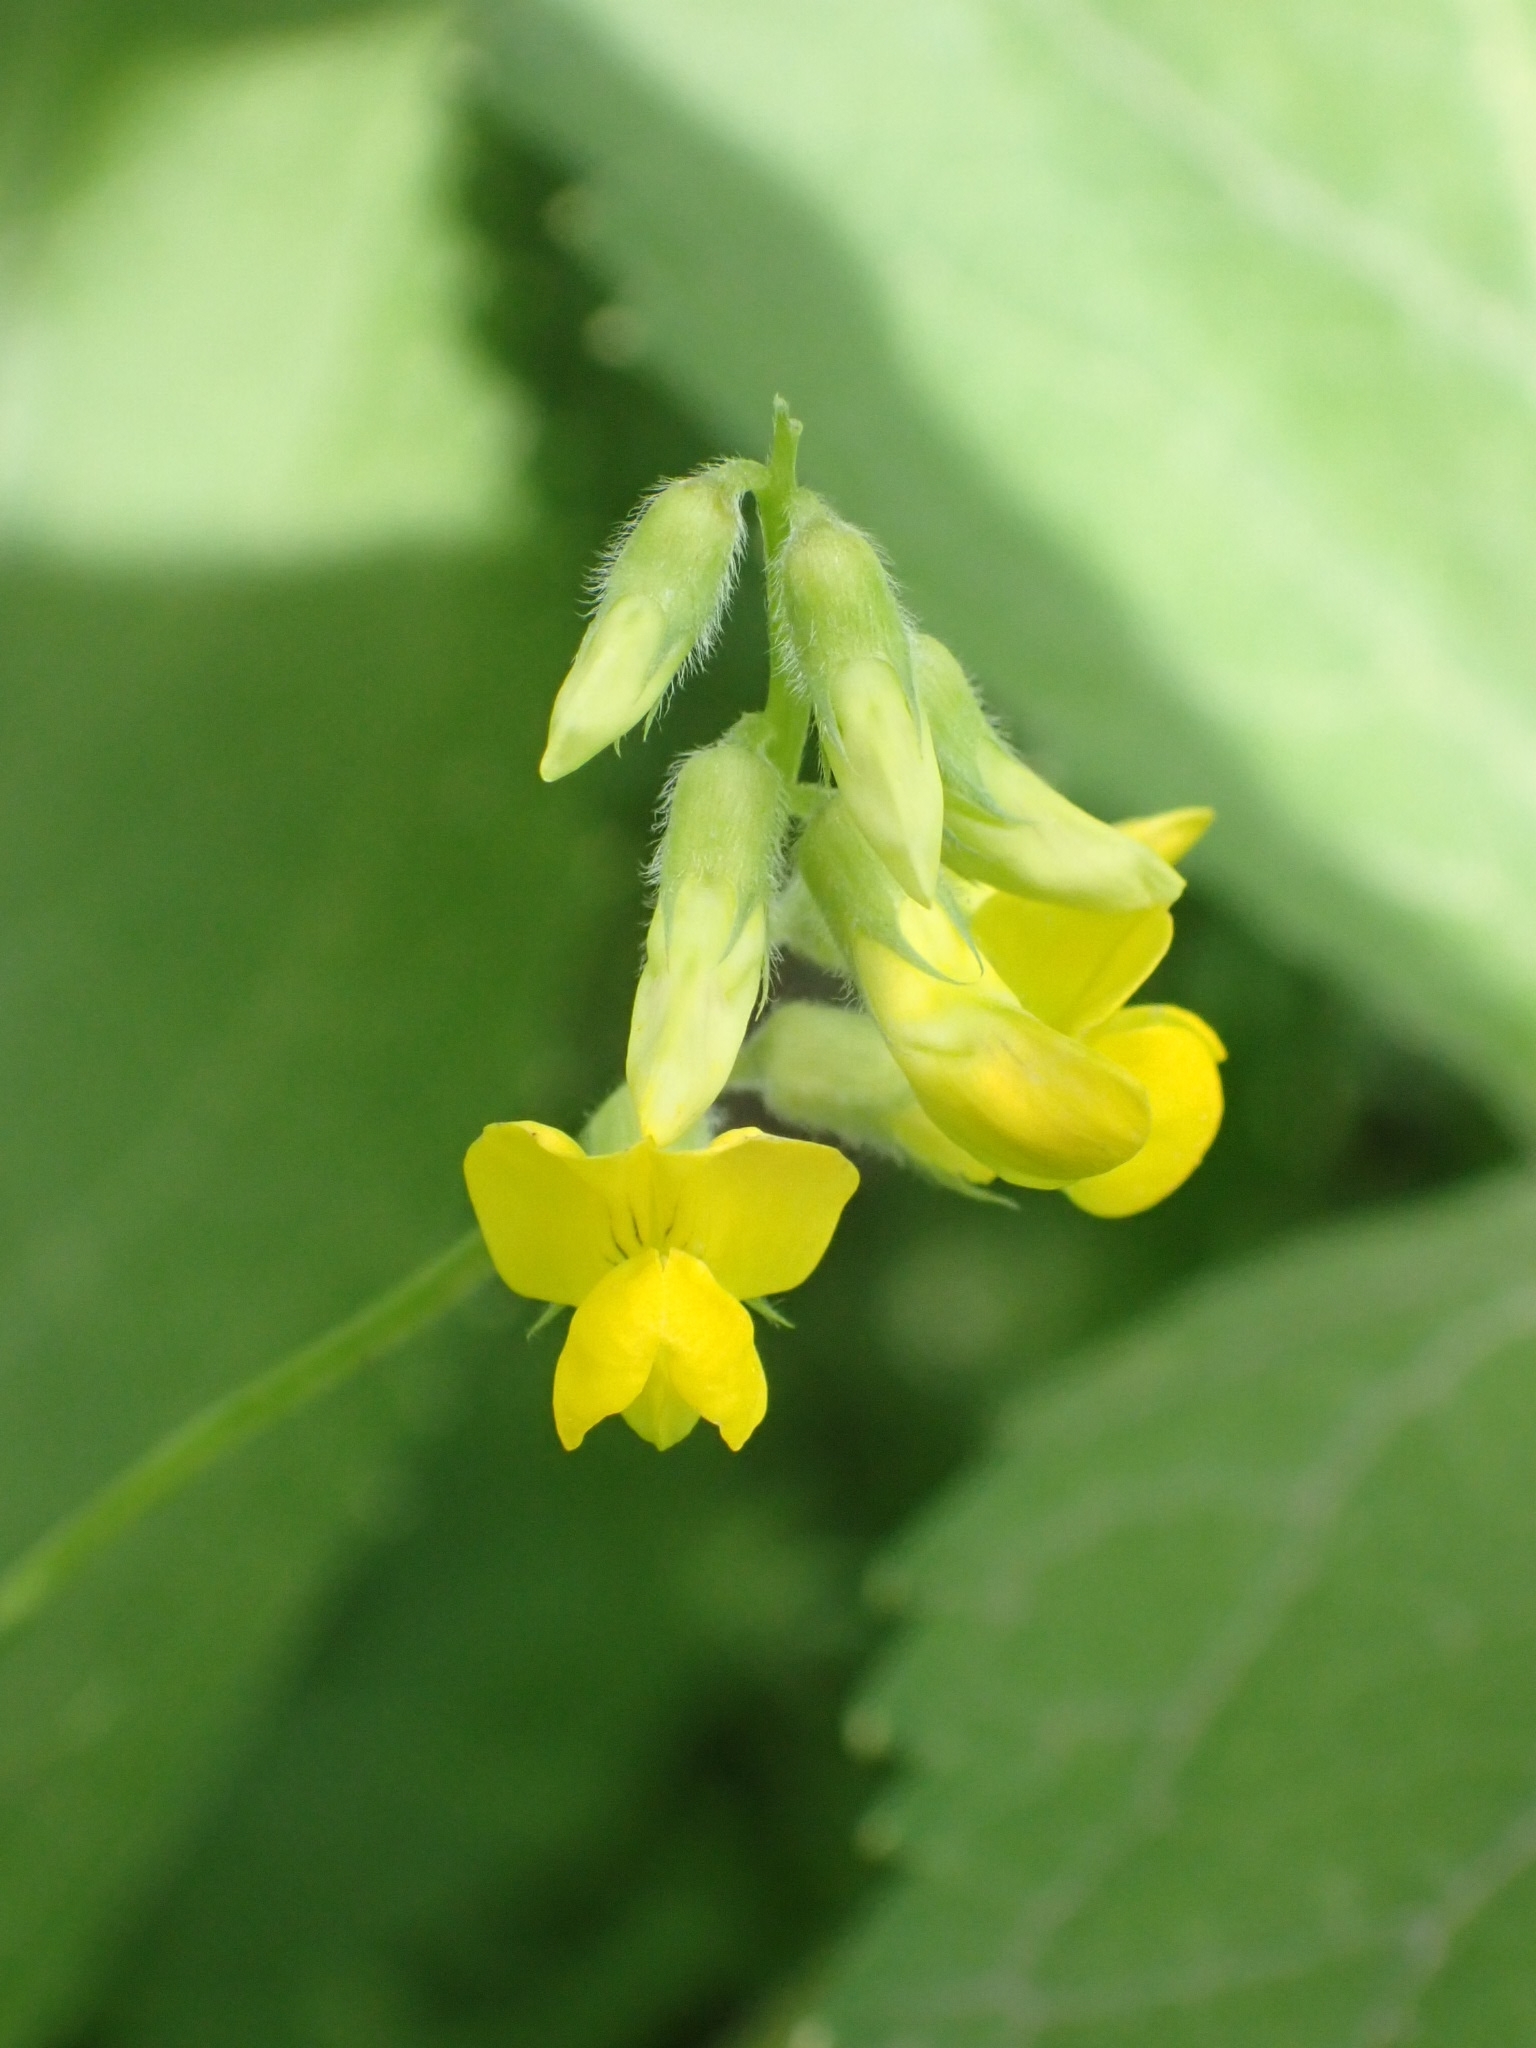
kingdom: Plantae
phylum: Tracheophyta
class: Magnoliopsida
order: Fabales
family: Fabaceae
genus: Lathyrus
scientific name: Lathyrus pratensis
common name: Meadow vetchling
